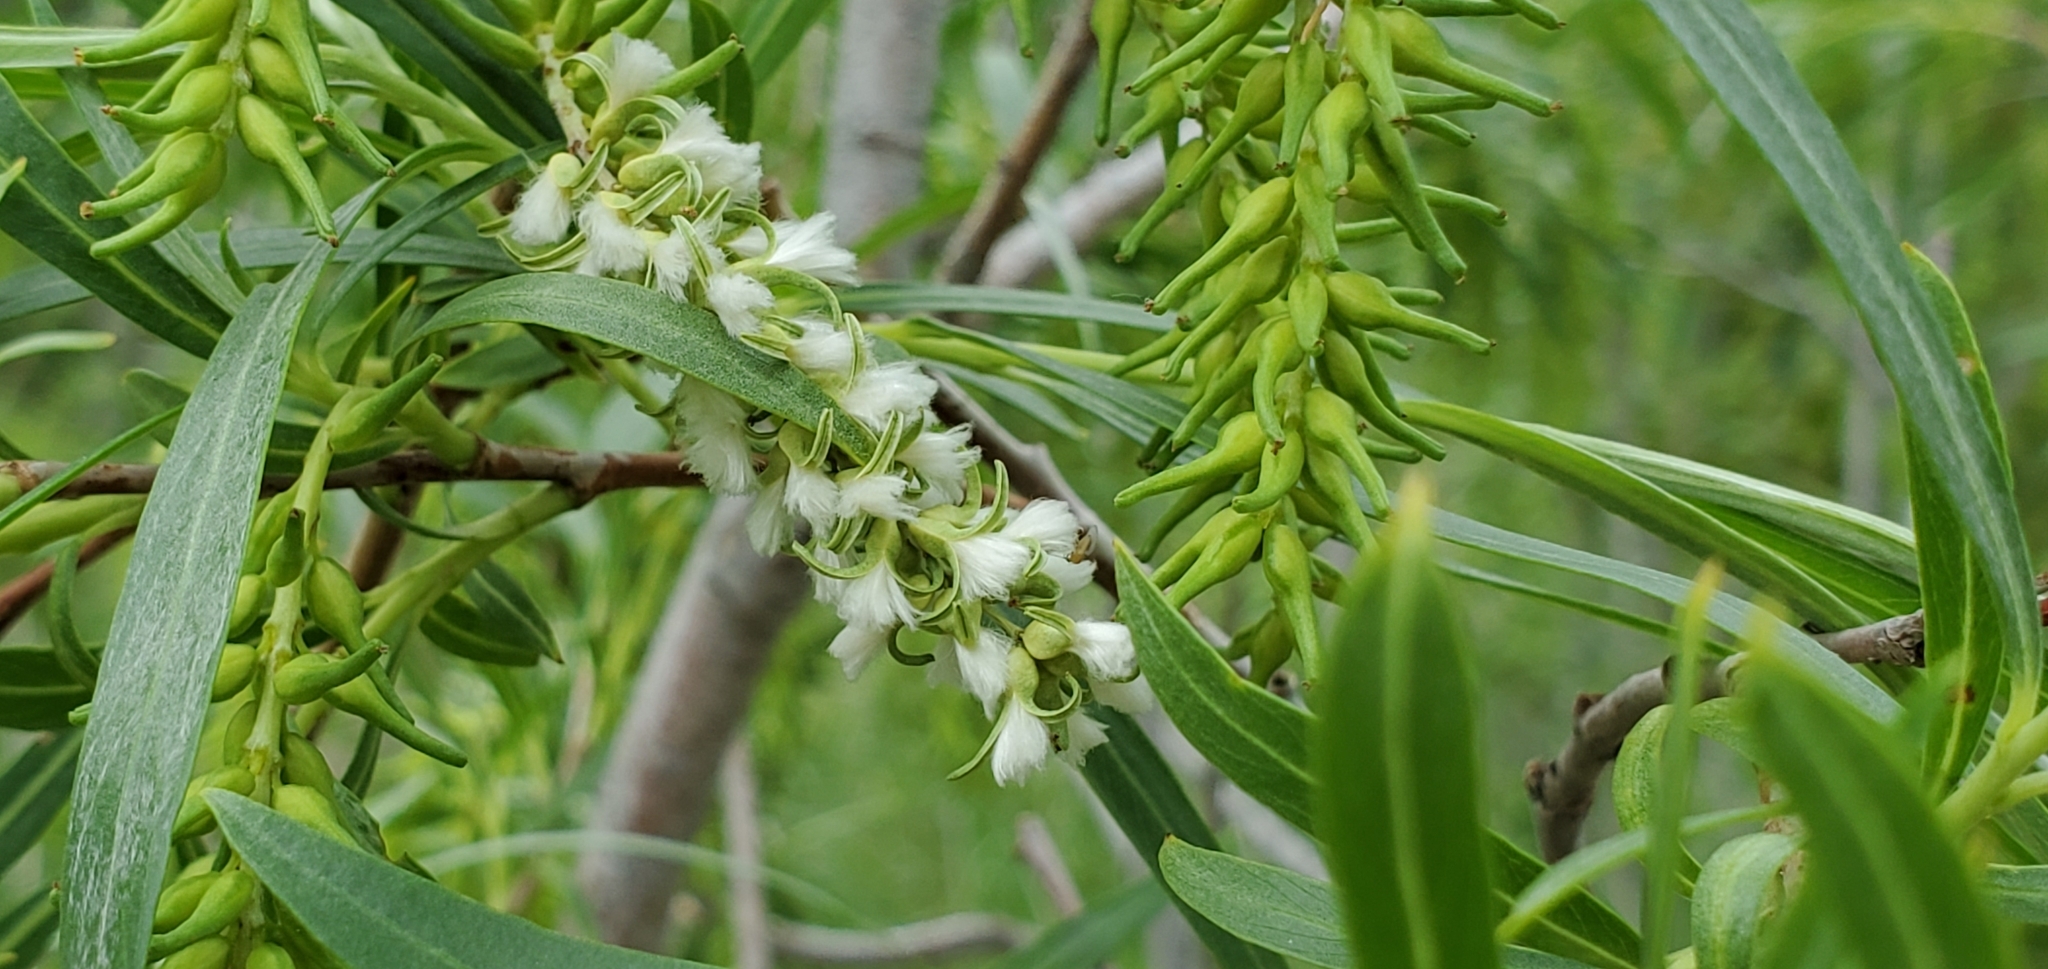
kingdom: Plantae
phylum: Tracheophyta
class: Magnoliopsida
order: Malpighiales
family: Salicaceae
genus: Salix
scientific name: Salix interior
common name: Sandbar willow
